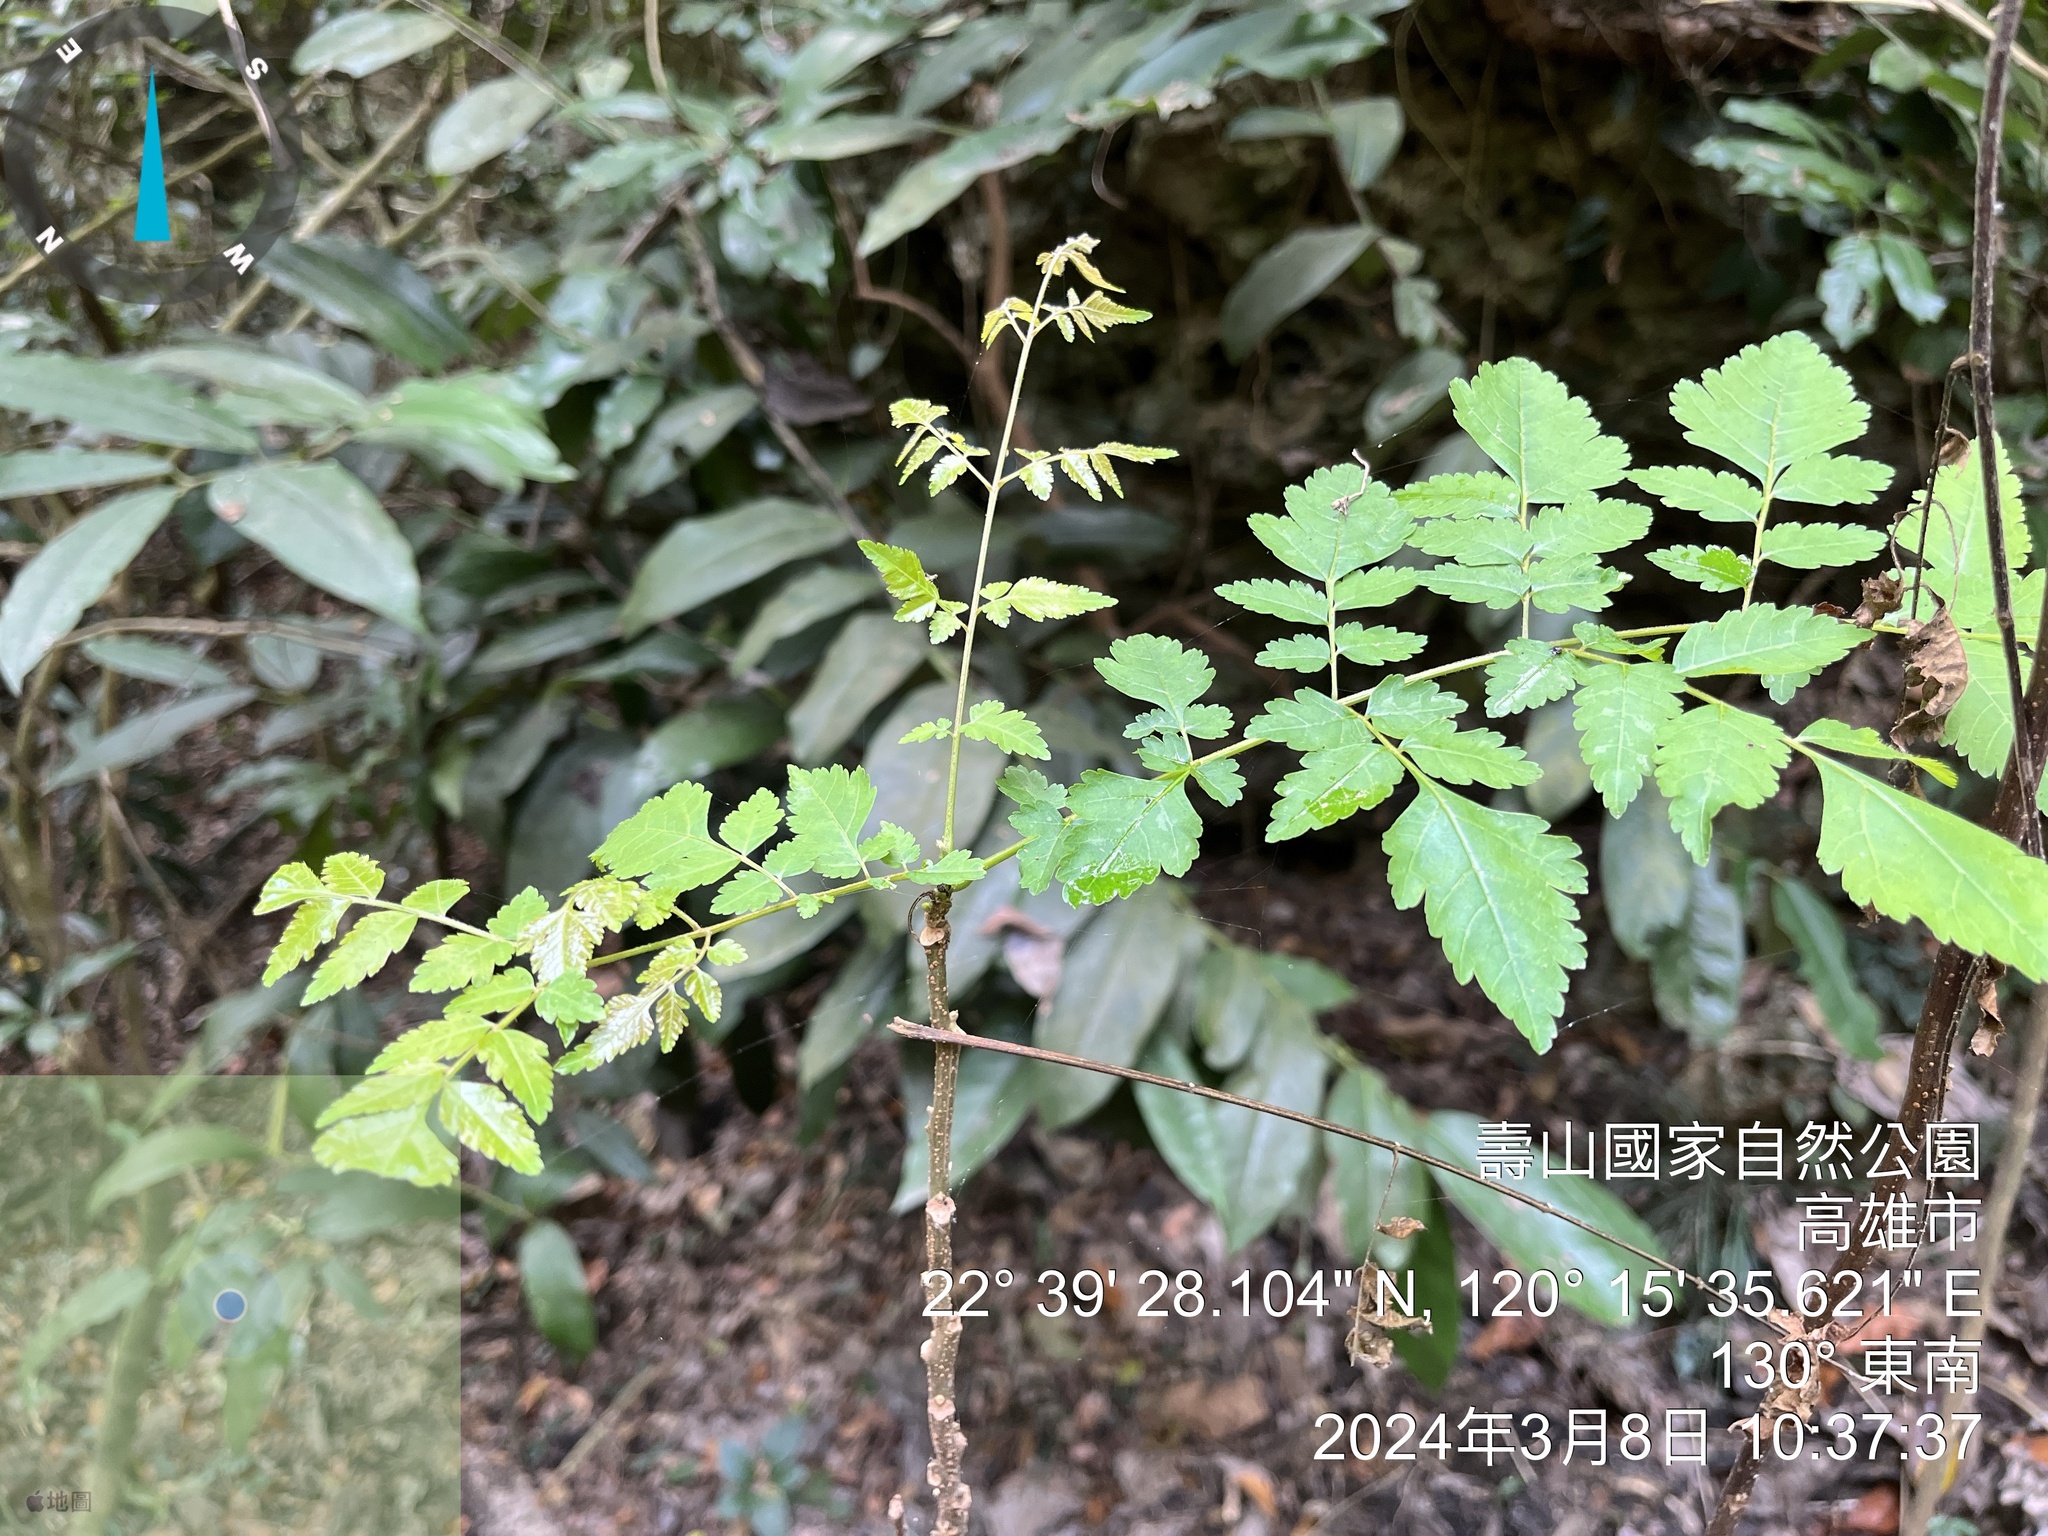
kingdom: Plantae
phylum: Tracheophyta
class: Magnoliopsida
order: Sapindales
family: Sapindaceae
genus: Koelreuteria
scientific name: Koelreuteria elegans
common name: Chinese flame tree
